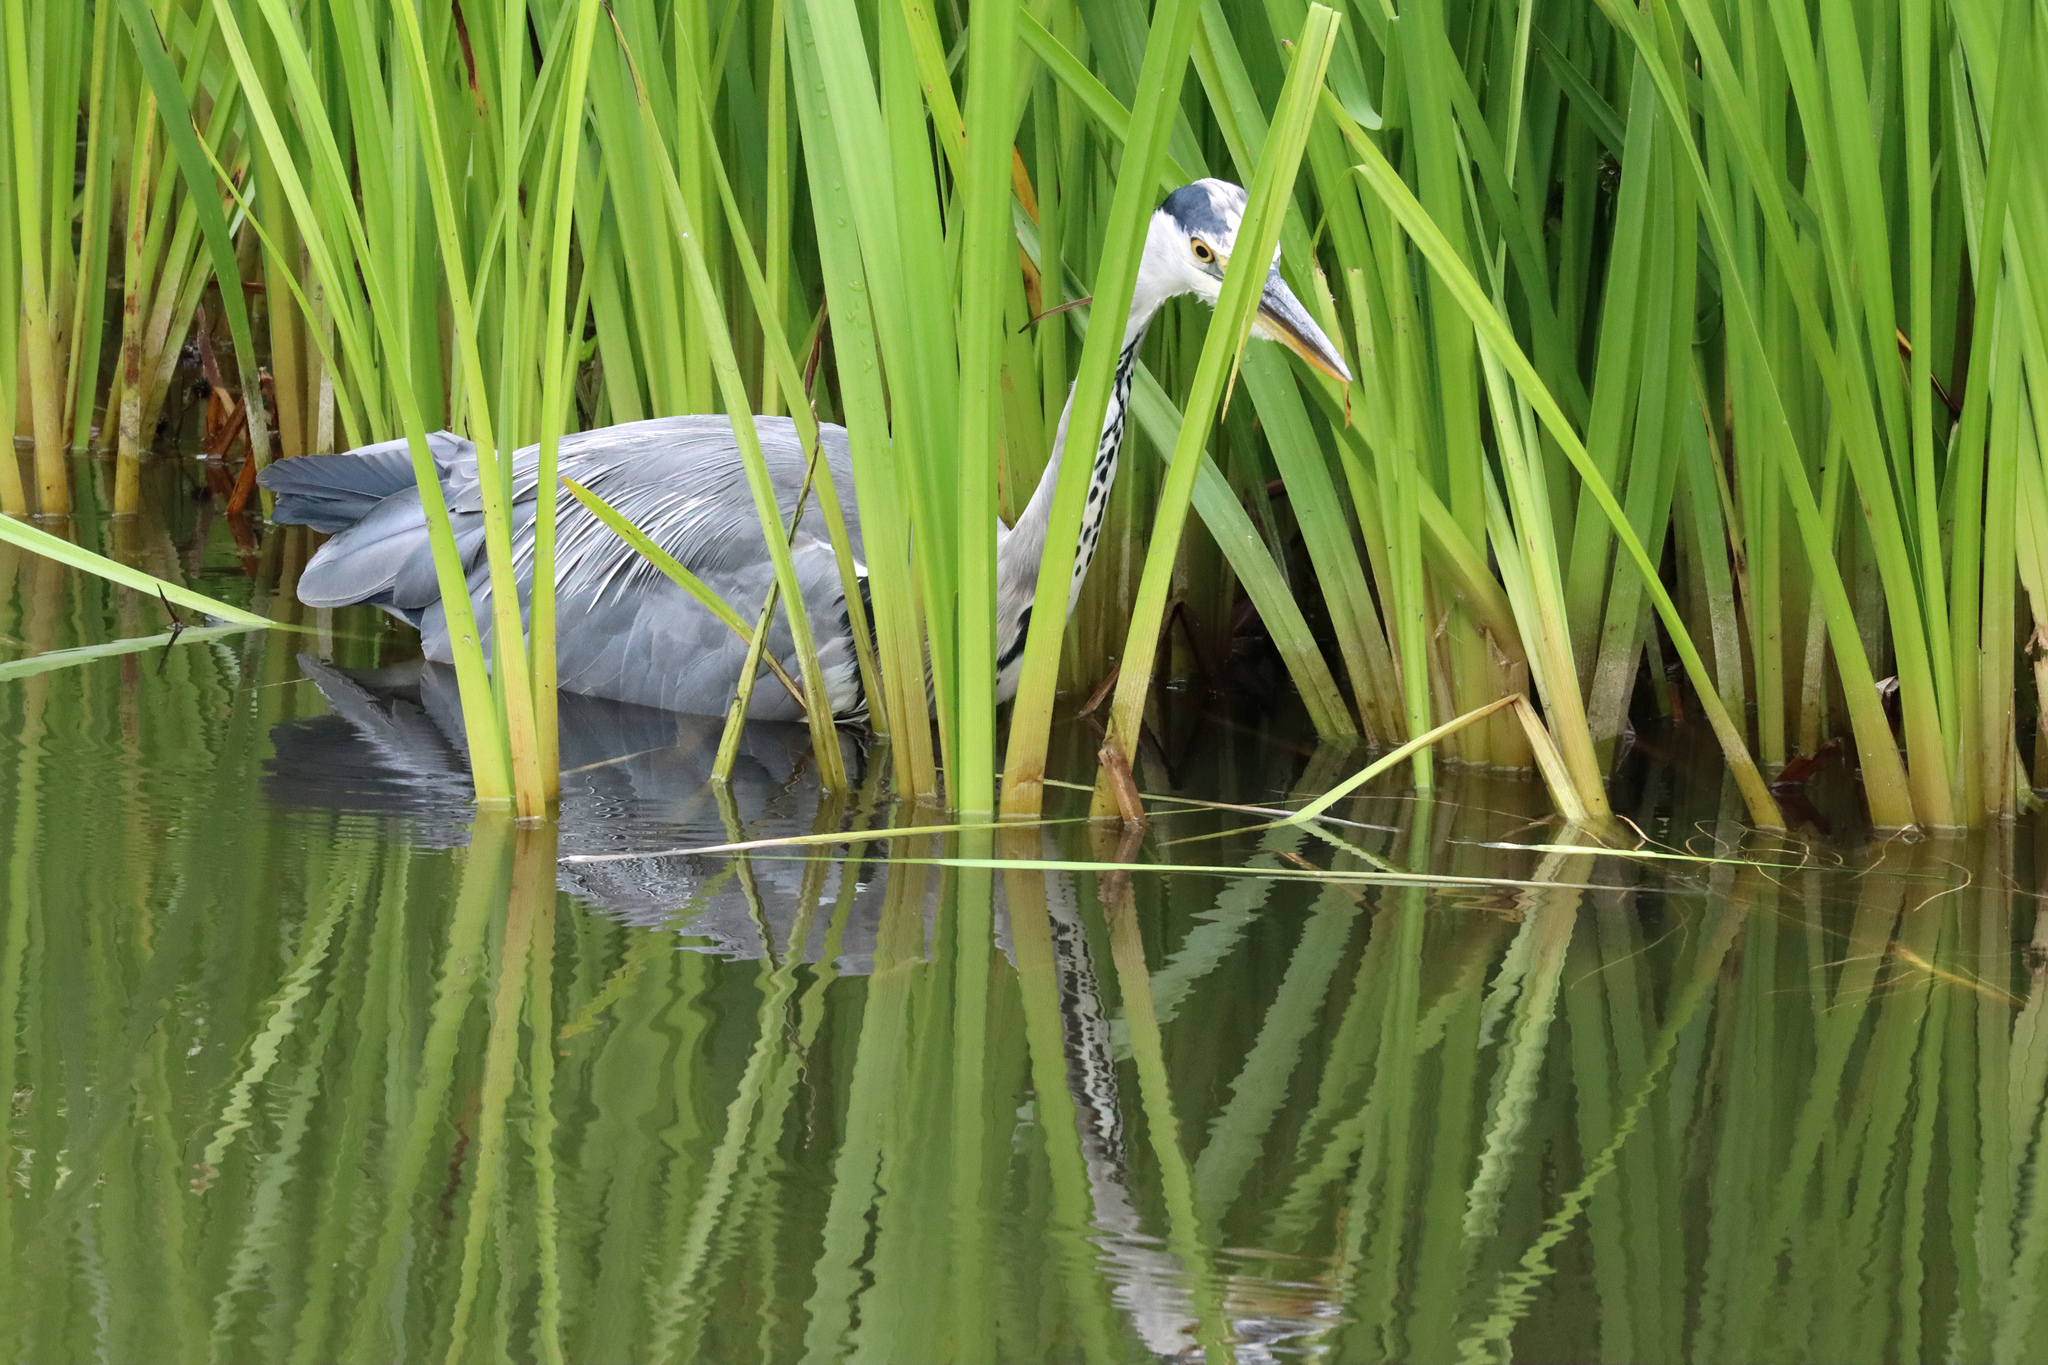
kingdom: Animalia
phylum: Chordata
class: Aves
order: Pelecaniformes
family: Ardeidae
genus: Ardea
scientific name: Ardea cinerea
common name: Grey heron
